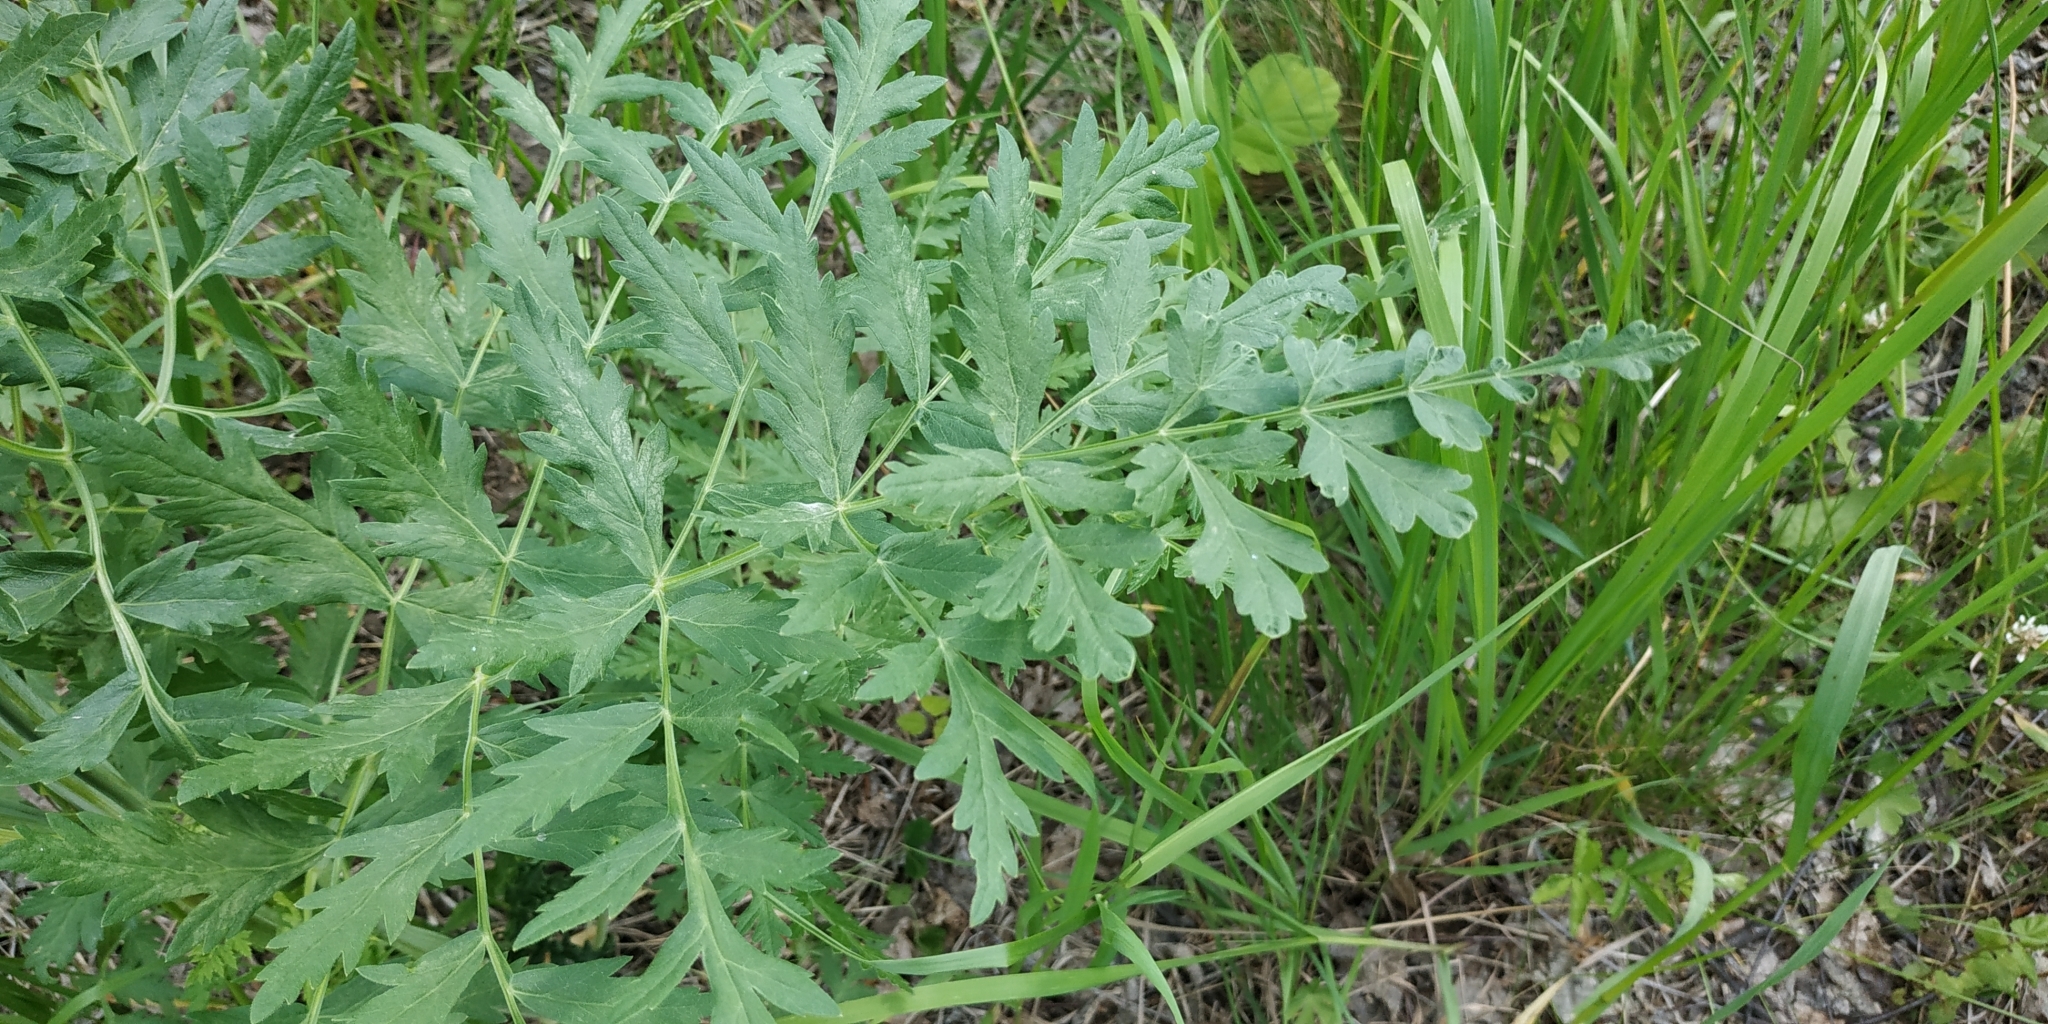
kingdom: Plantae
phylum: Tracheophyta
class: Magnoliopsida
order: Apiales
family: Apiaceae
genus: Seseli
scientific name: Seseli libanotis
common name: Mooncarrot
